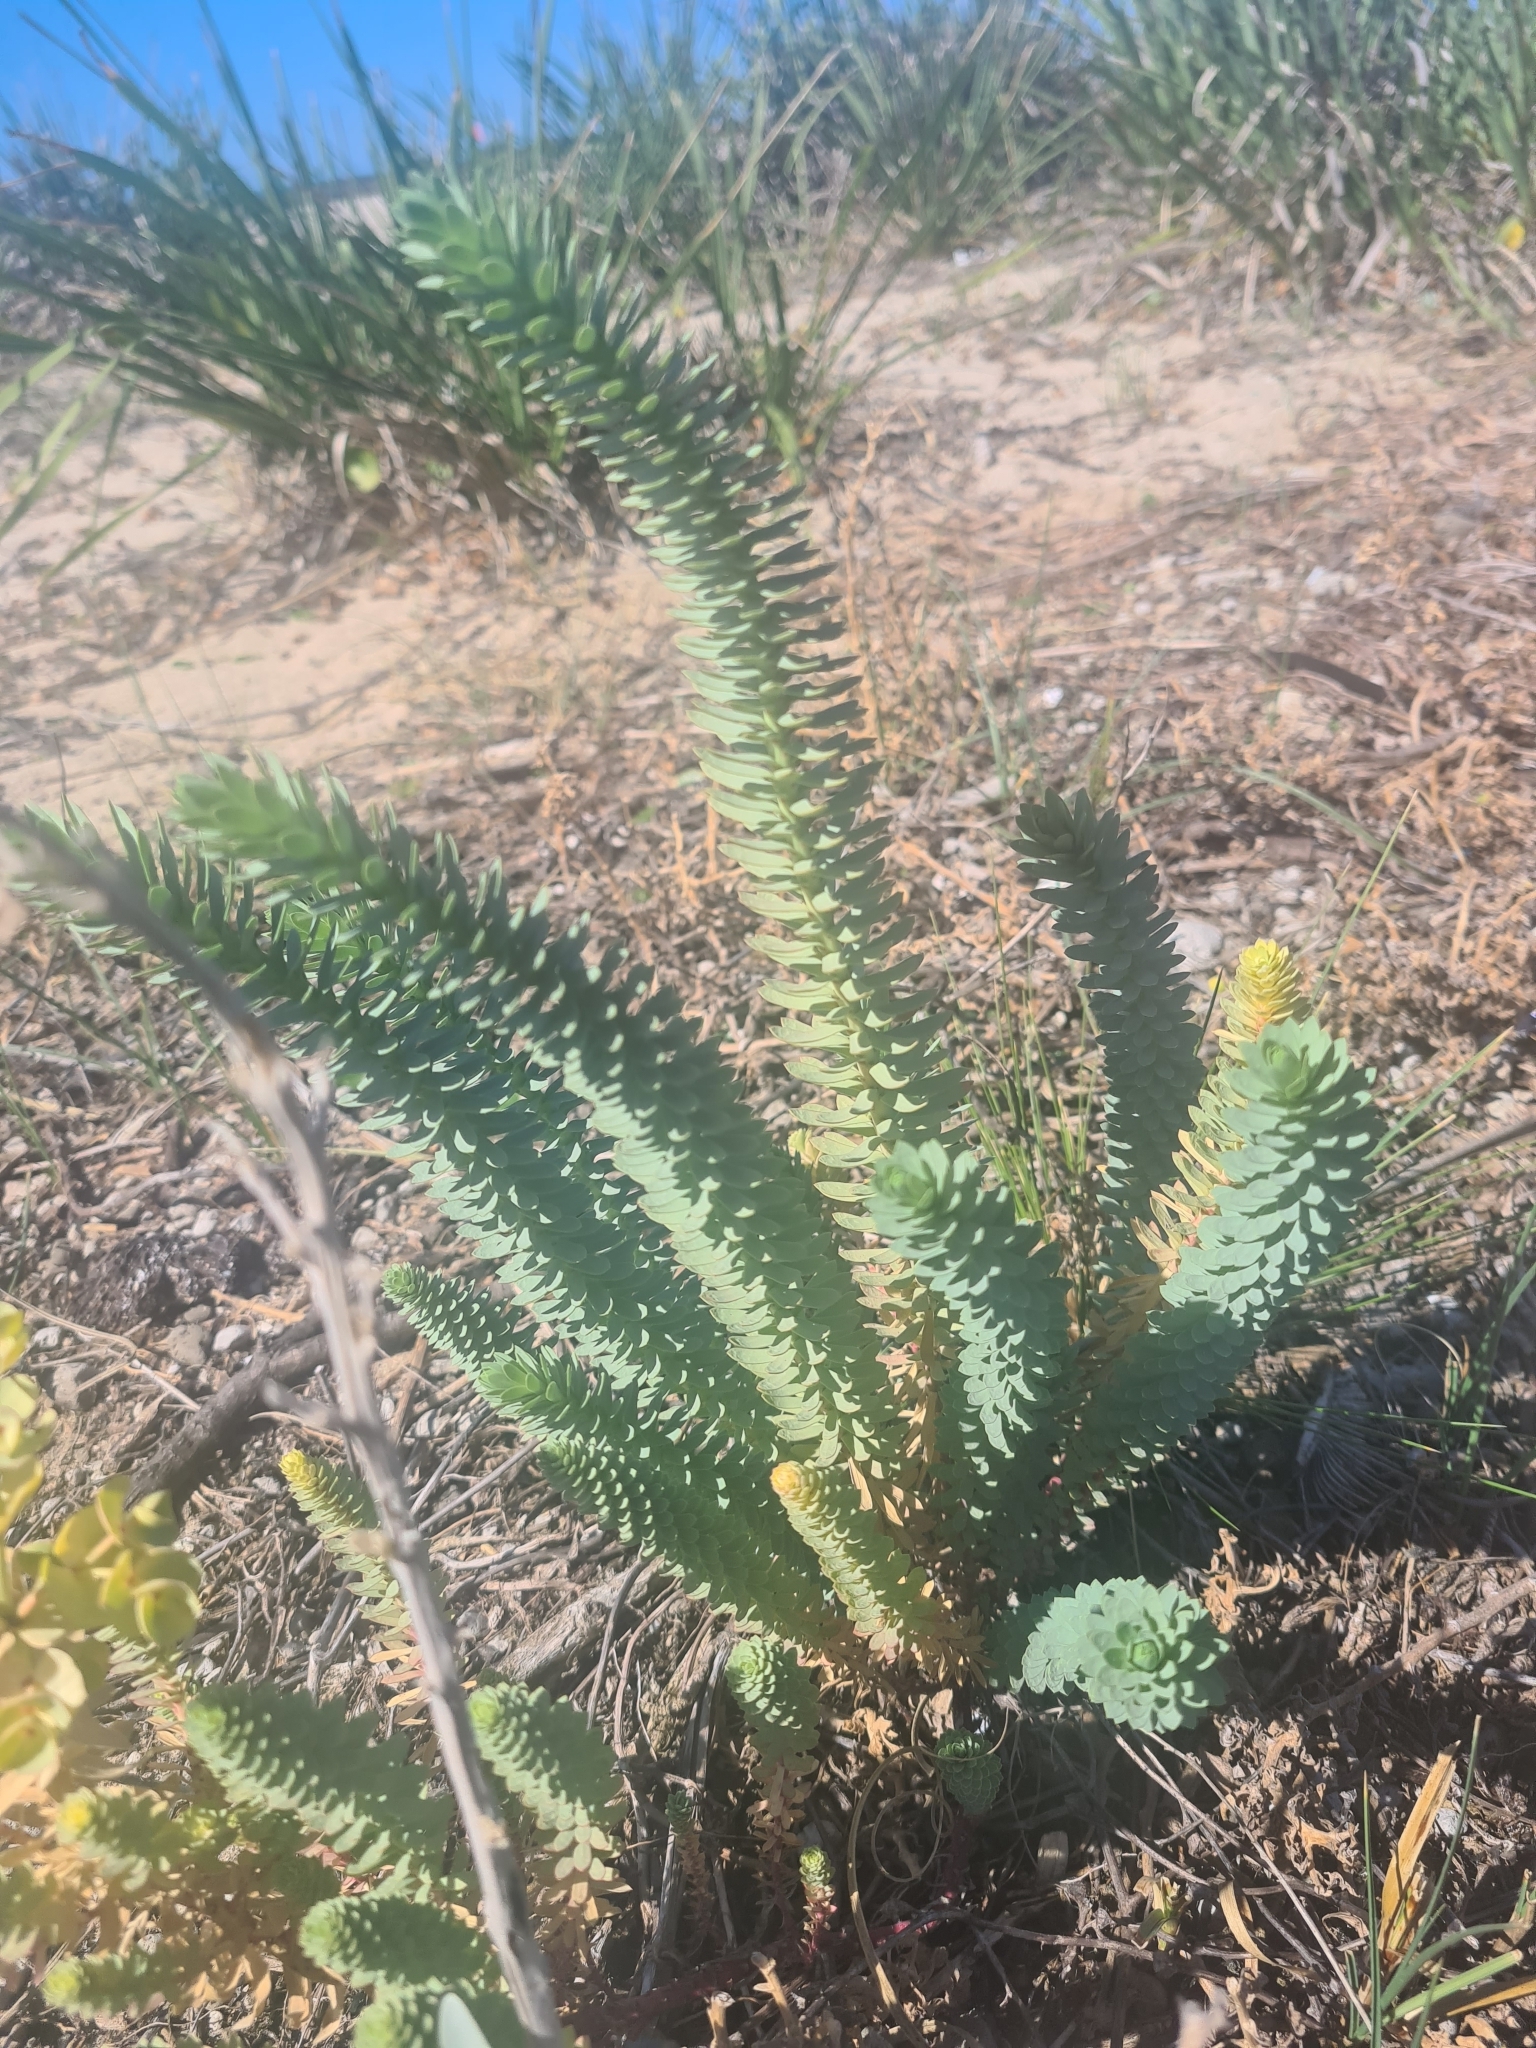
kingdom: Plantae
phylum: Tracheophyta
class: Magnoliopsida
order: Malpighiales
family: Euphorbiaceae
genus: Euphorbia
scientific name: Euphorbia paralias
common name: Sea spurge
